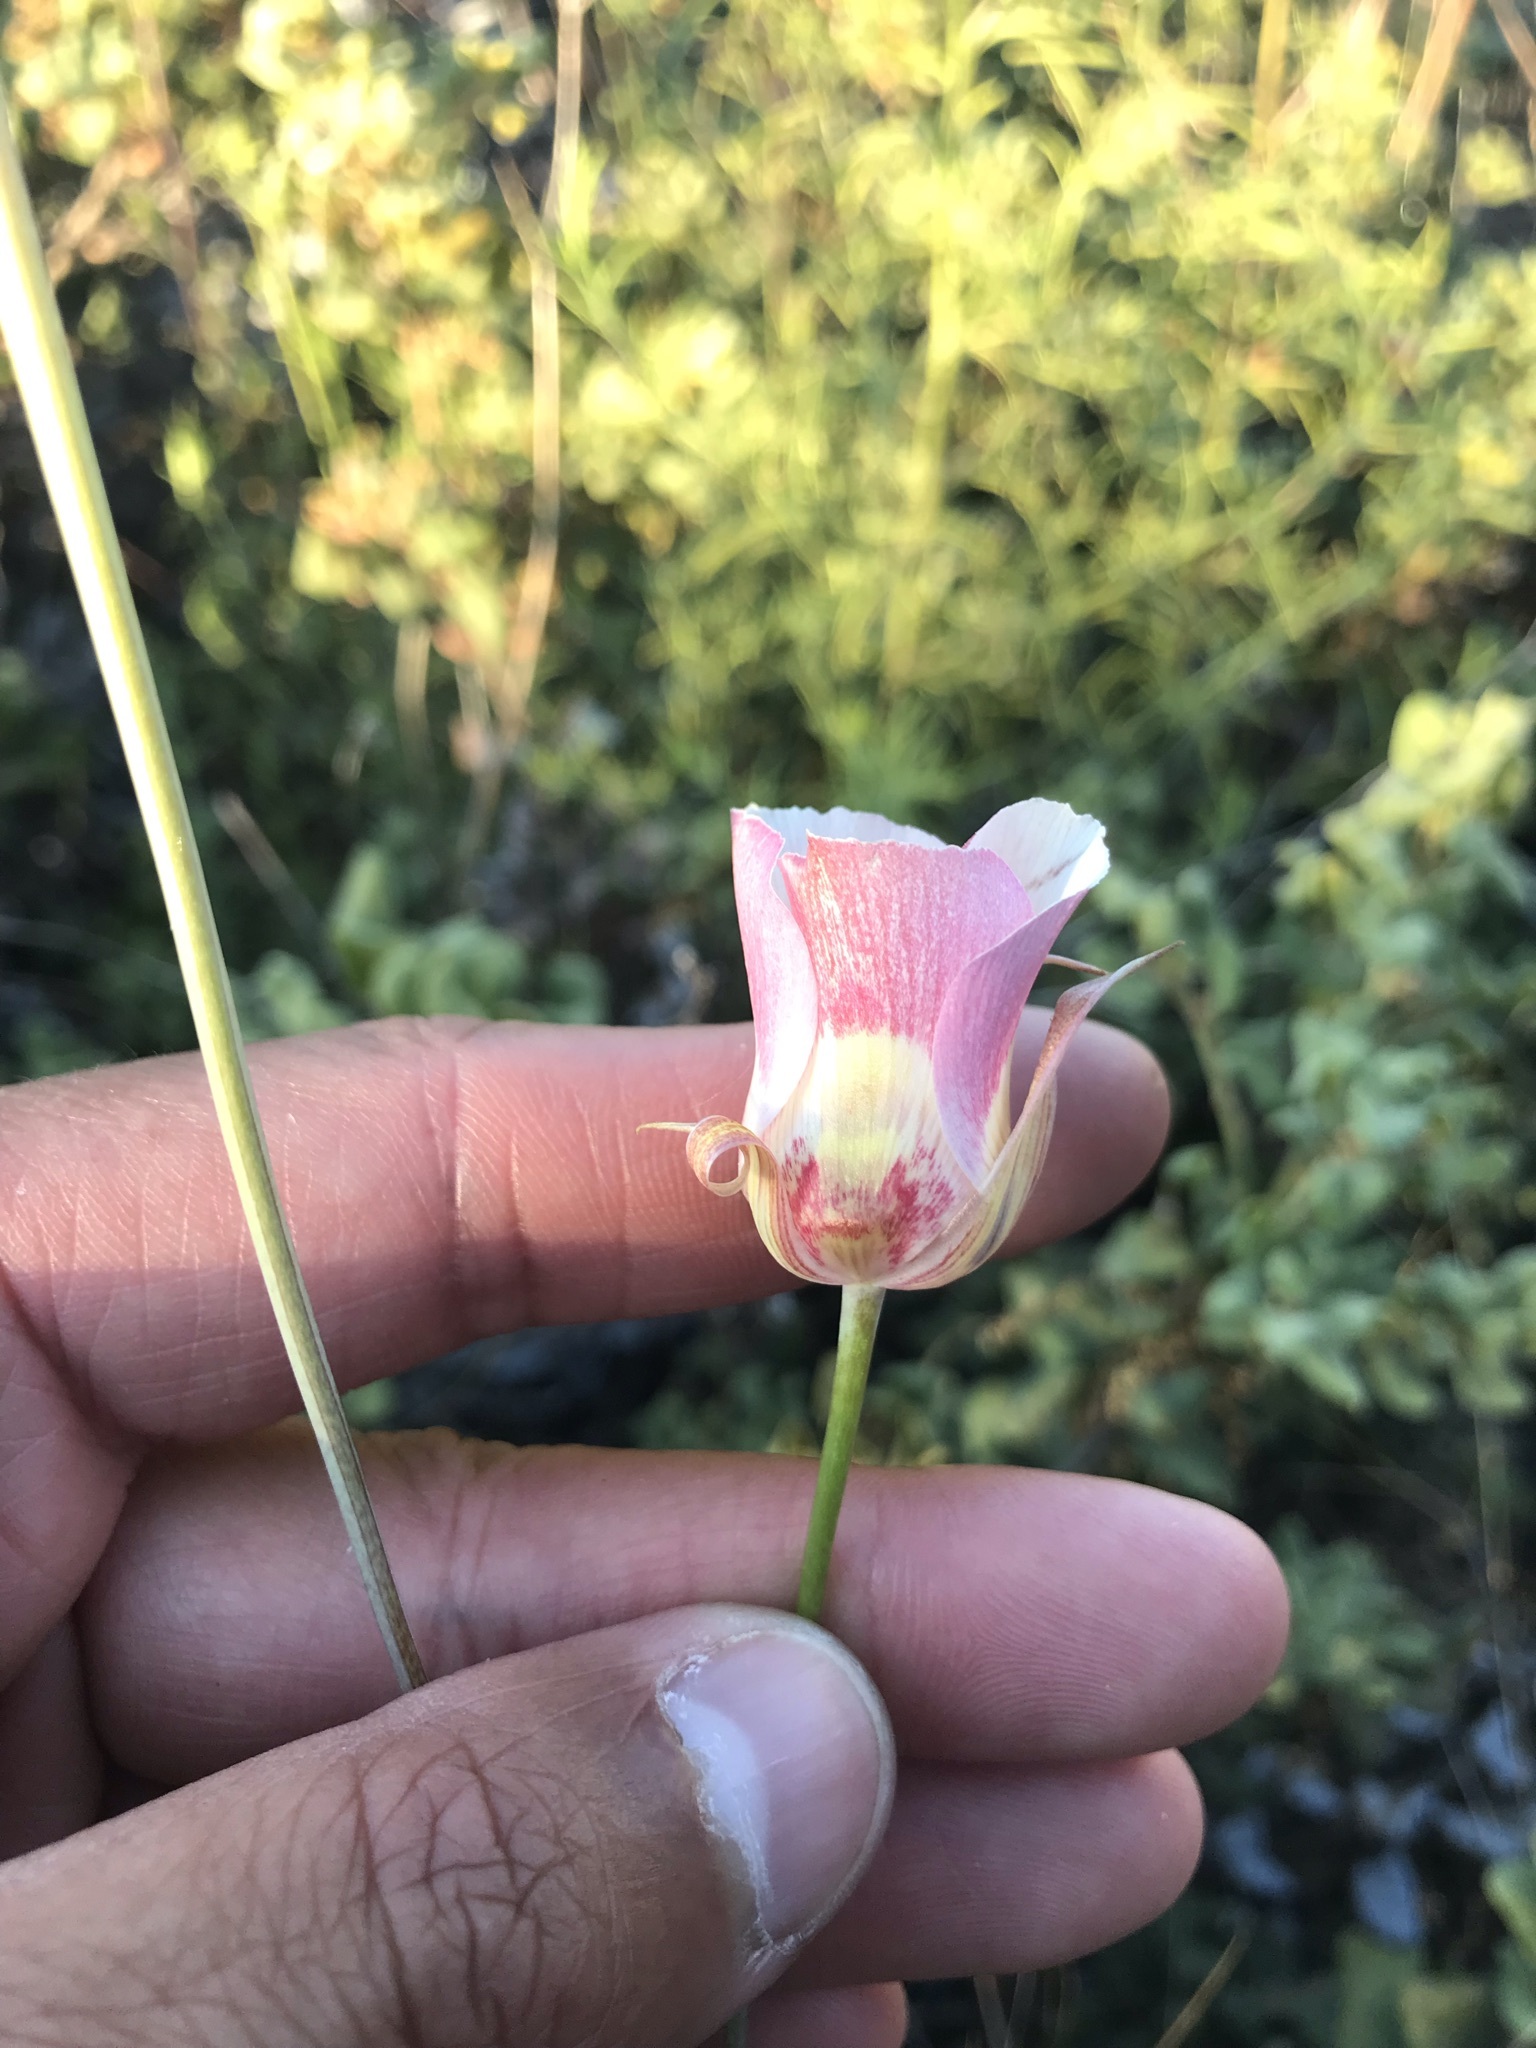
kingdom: Plantae
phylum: Tracheophyta
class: Liliopsida
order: Liliales
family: Liliaceae
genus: Calochortus
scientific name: Calochortus argillosus
